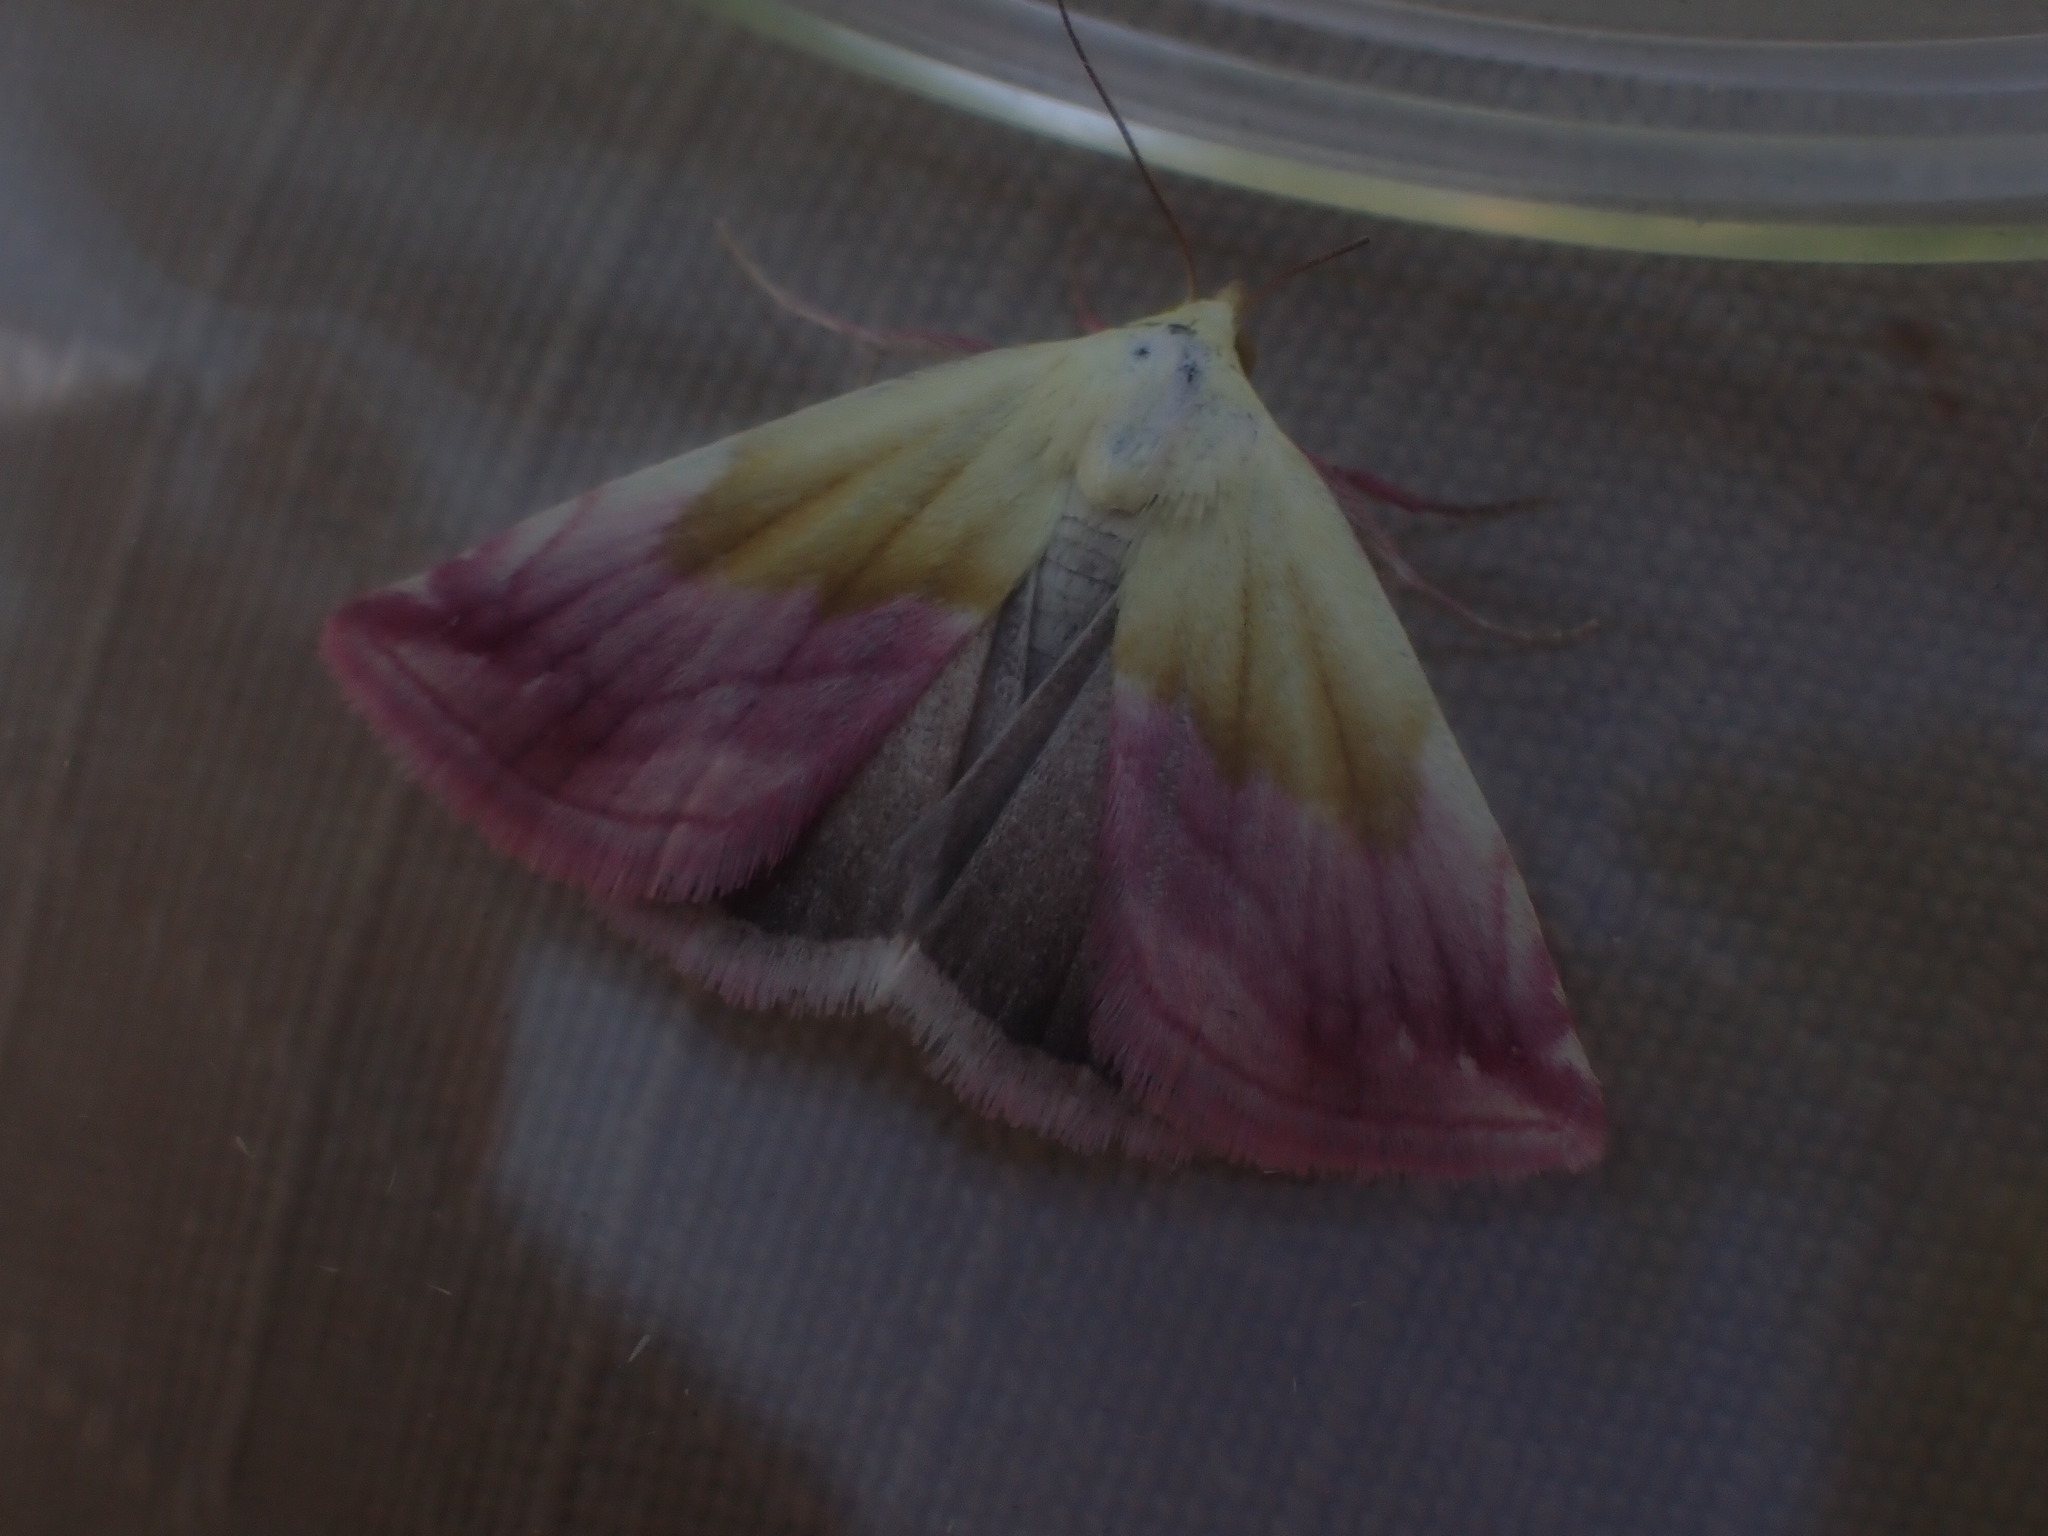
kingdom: Animalia
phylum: Arthropoda
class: Insecta
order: Lepidoptera
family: Noctuidae
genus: Eublemma
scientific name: Eublemma purpurina
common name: Beautiful marbled
